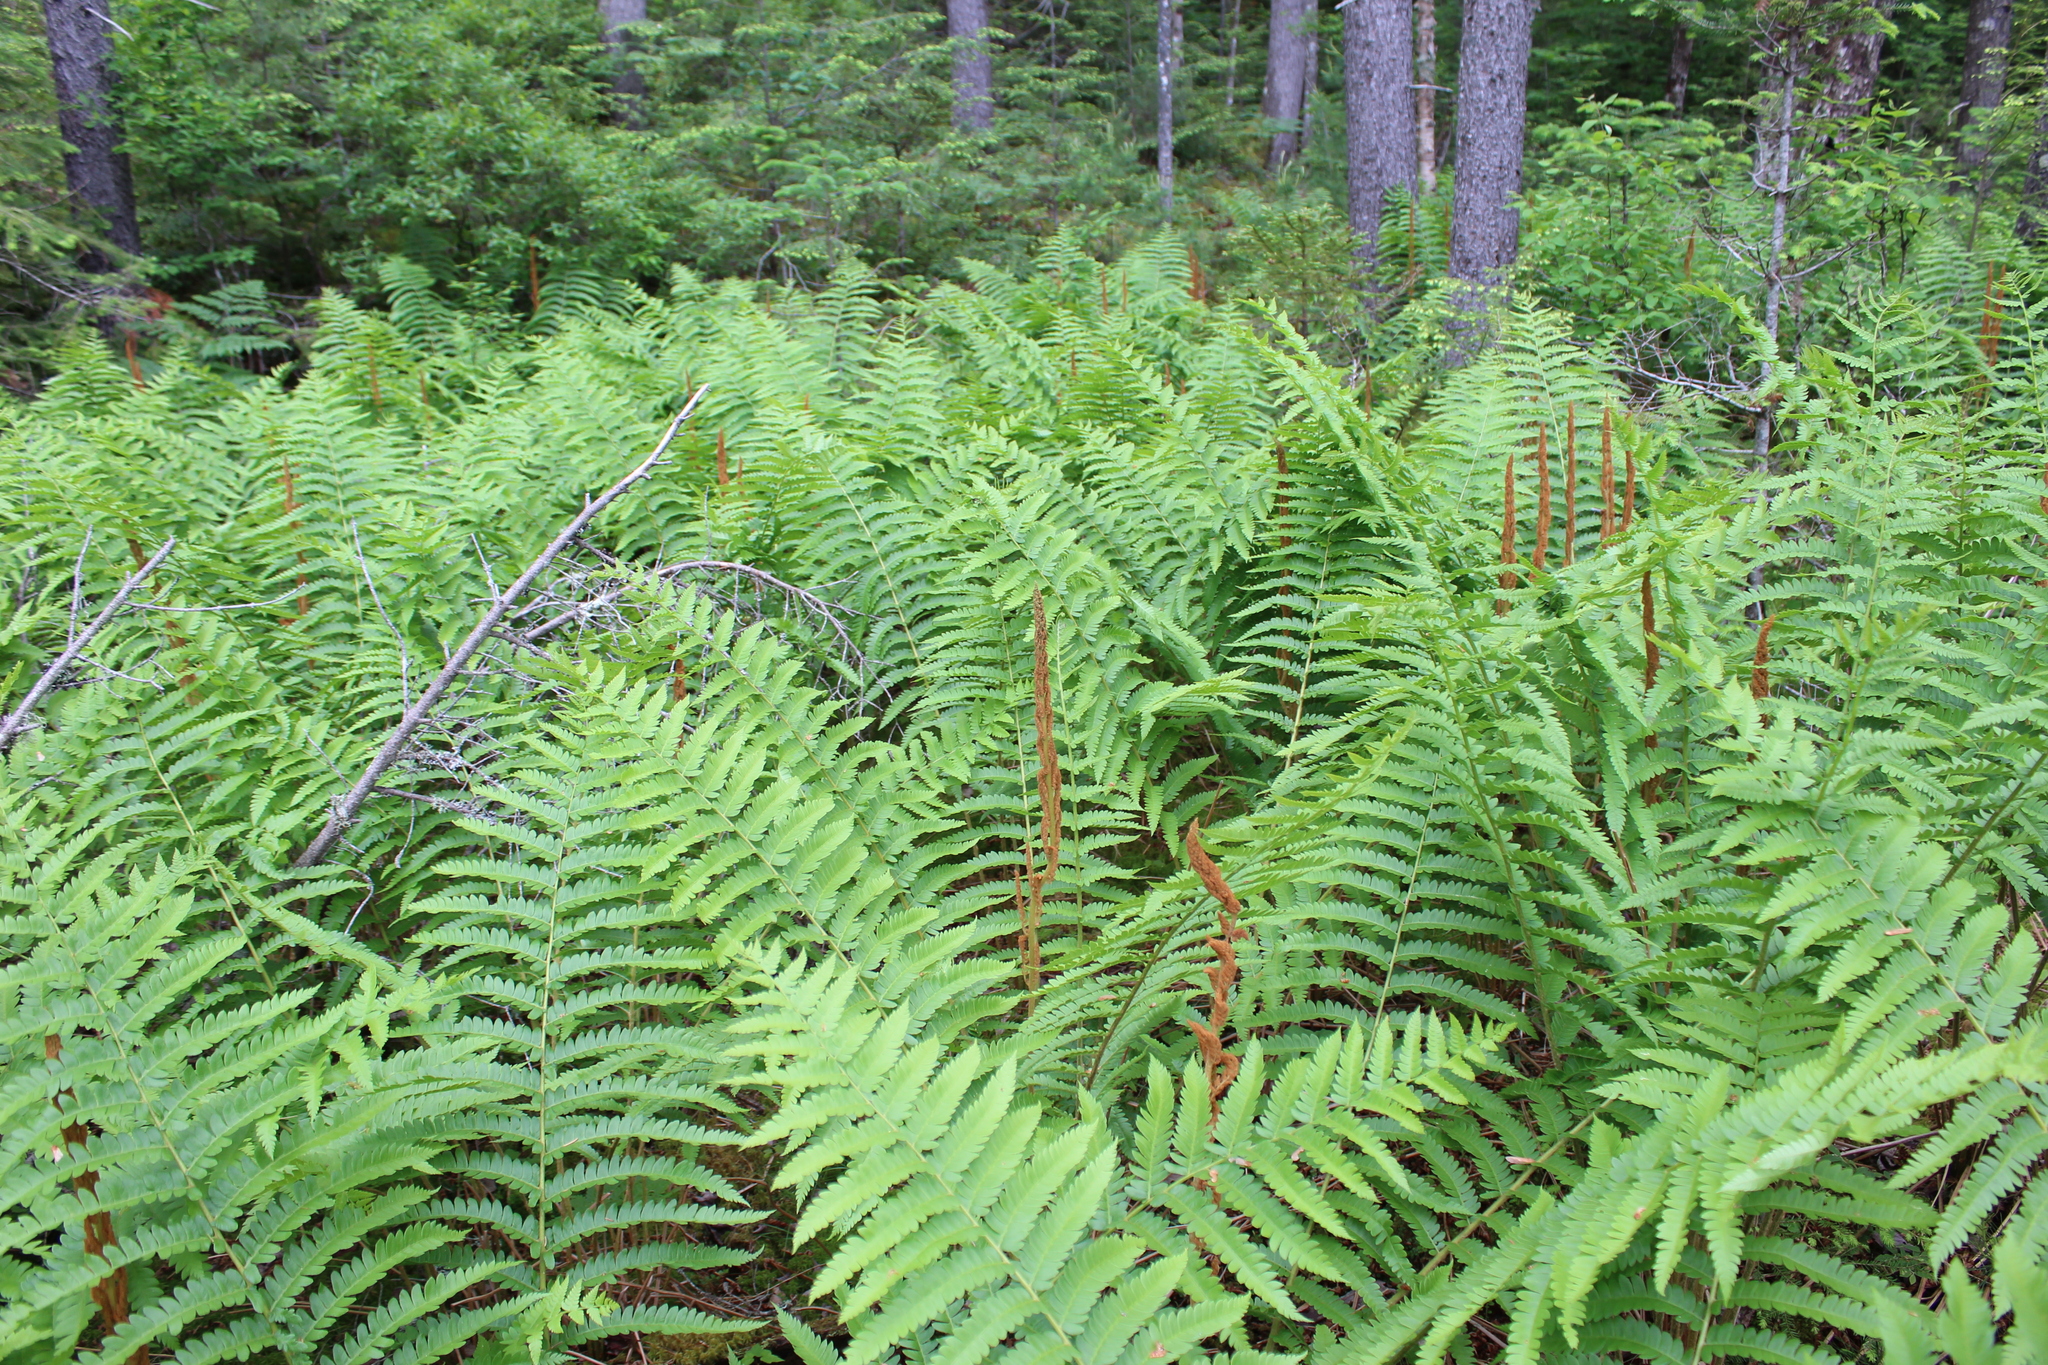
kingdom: Plantae
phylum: Tracheophyta
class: Polypodiopsida
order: Osmundales
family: Osmundaceae
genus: Osmundastrum
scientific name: Osmundastrum cinnamomeum
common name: Cinnamon fern
